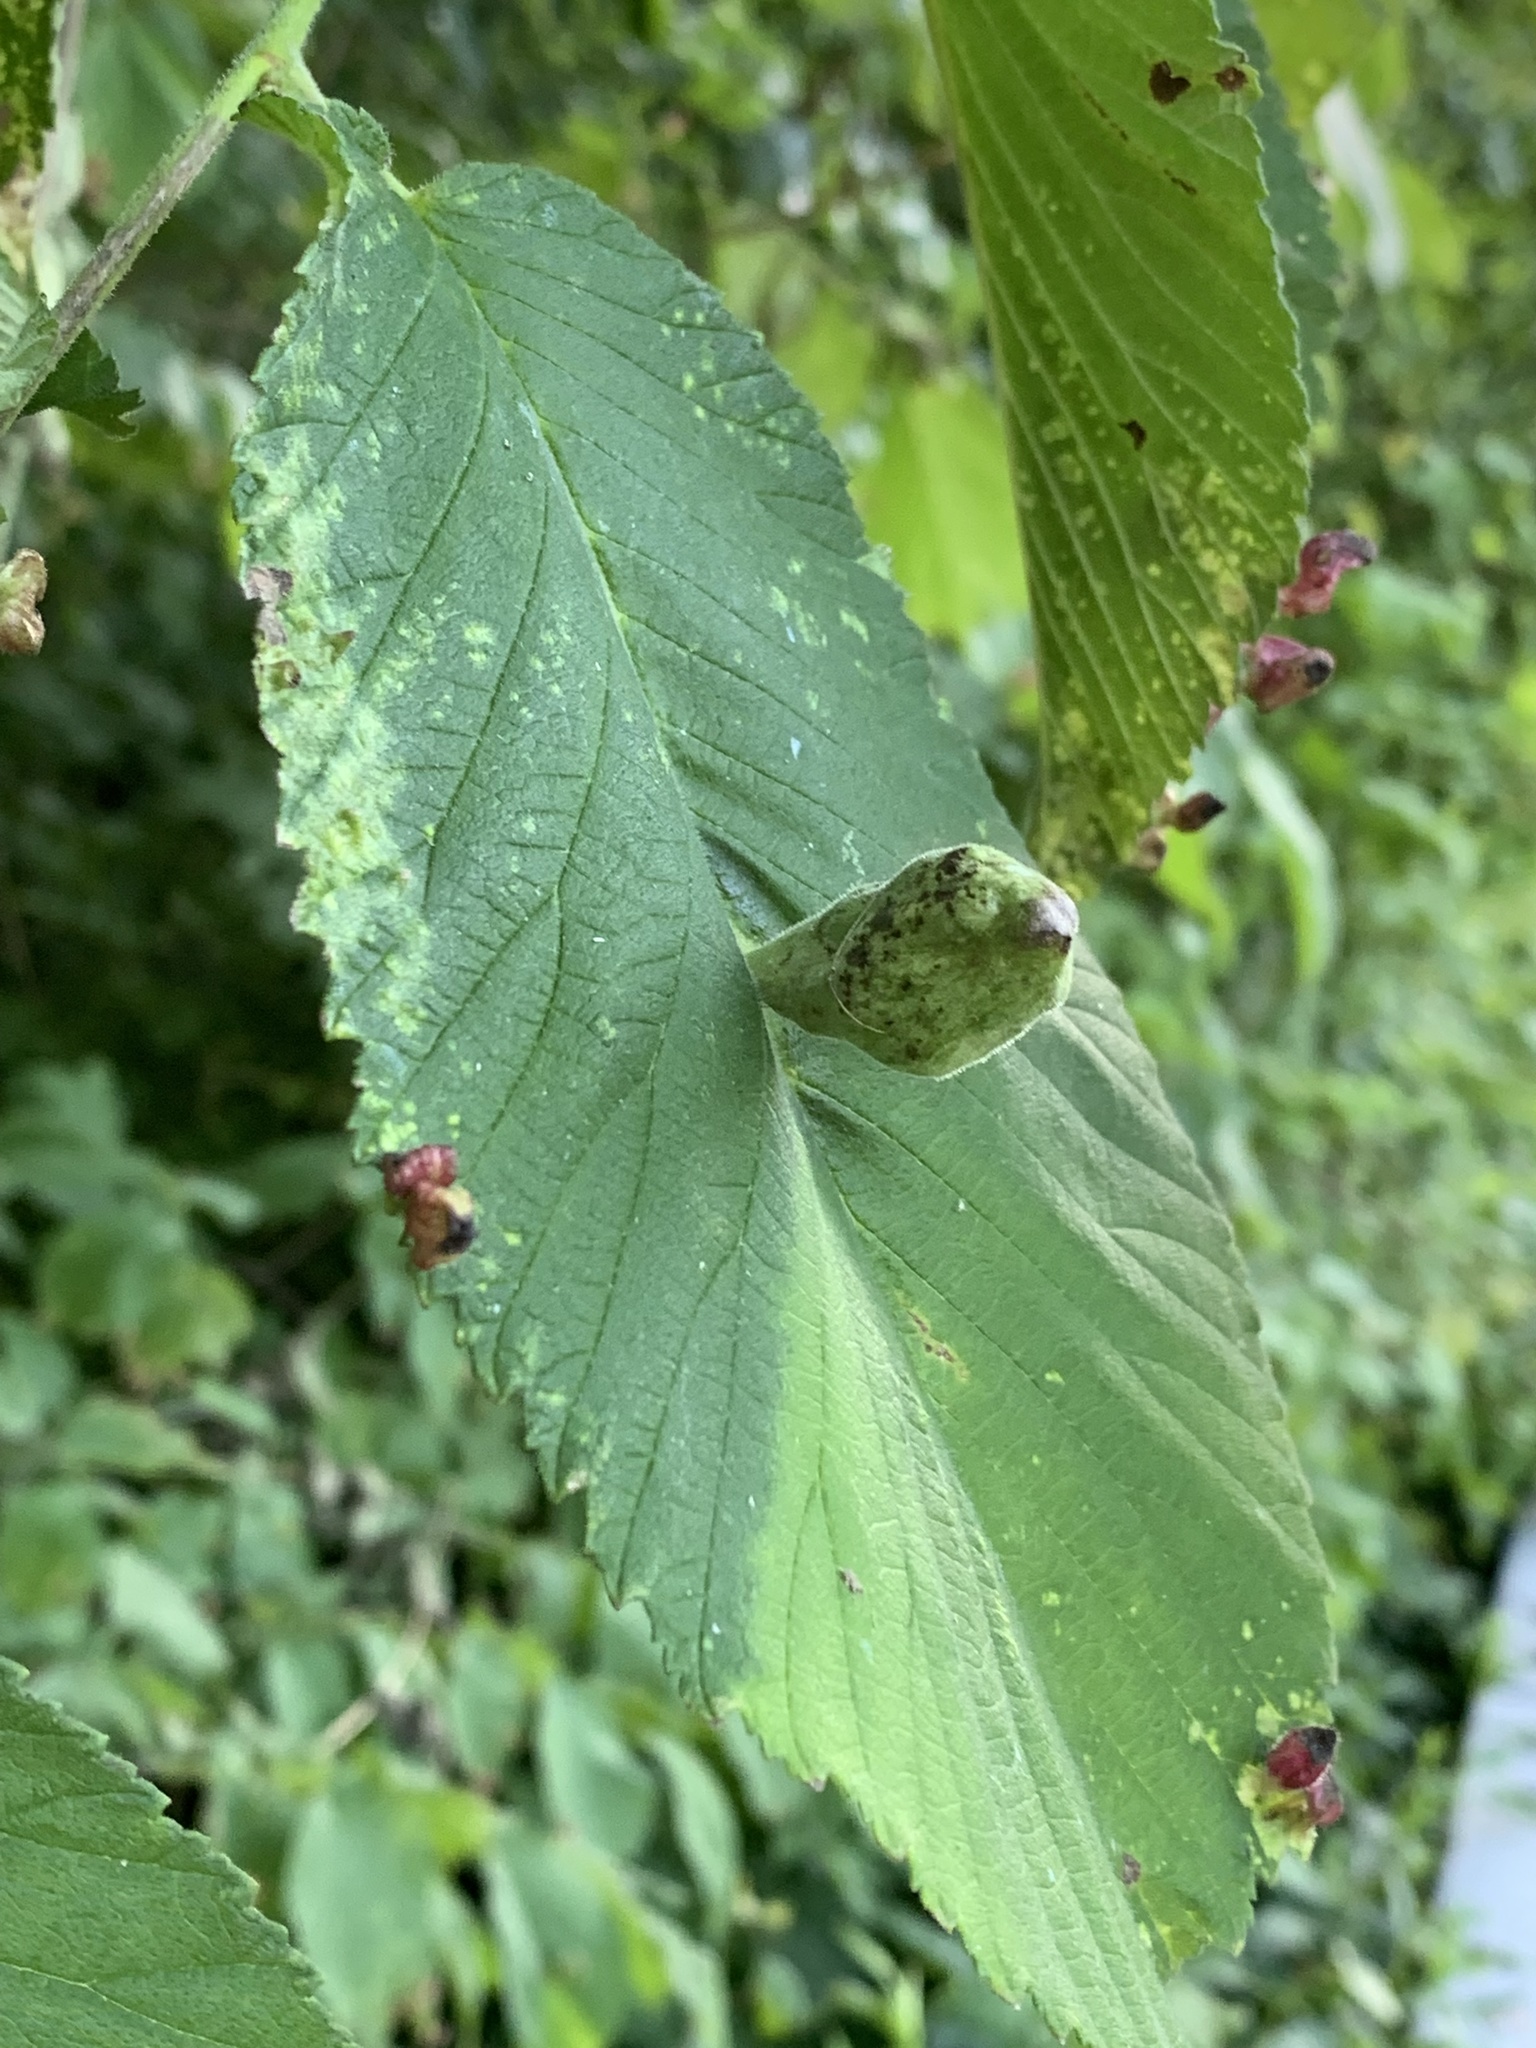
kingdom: Animalia
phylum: Arthropoda
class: Insecta
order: Hemiptera
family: Aphididae
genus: Kaltenbachiella
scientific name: Kaltenbachiella ulmifusa
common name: Elm pouchgall aphid
